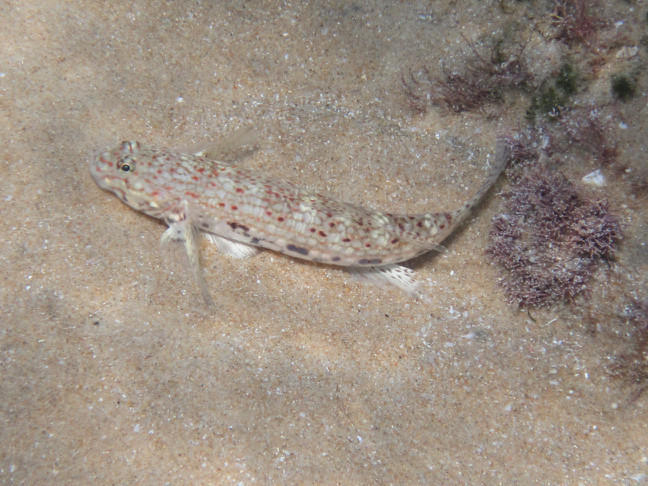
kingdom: Animalia
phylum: Chordata
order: Perciformes
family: Gobiidae
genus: Istigobius
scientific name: Istigobius decoratus
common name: Decorated goby
